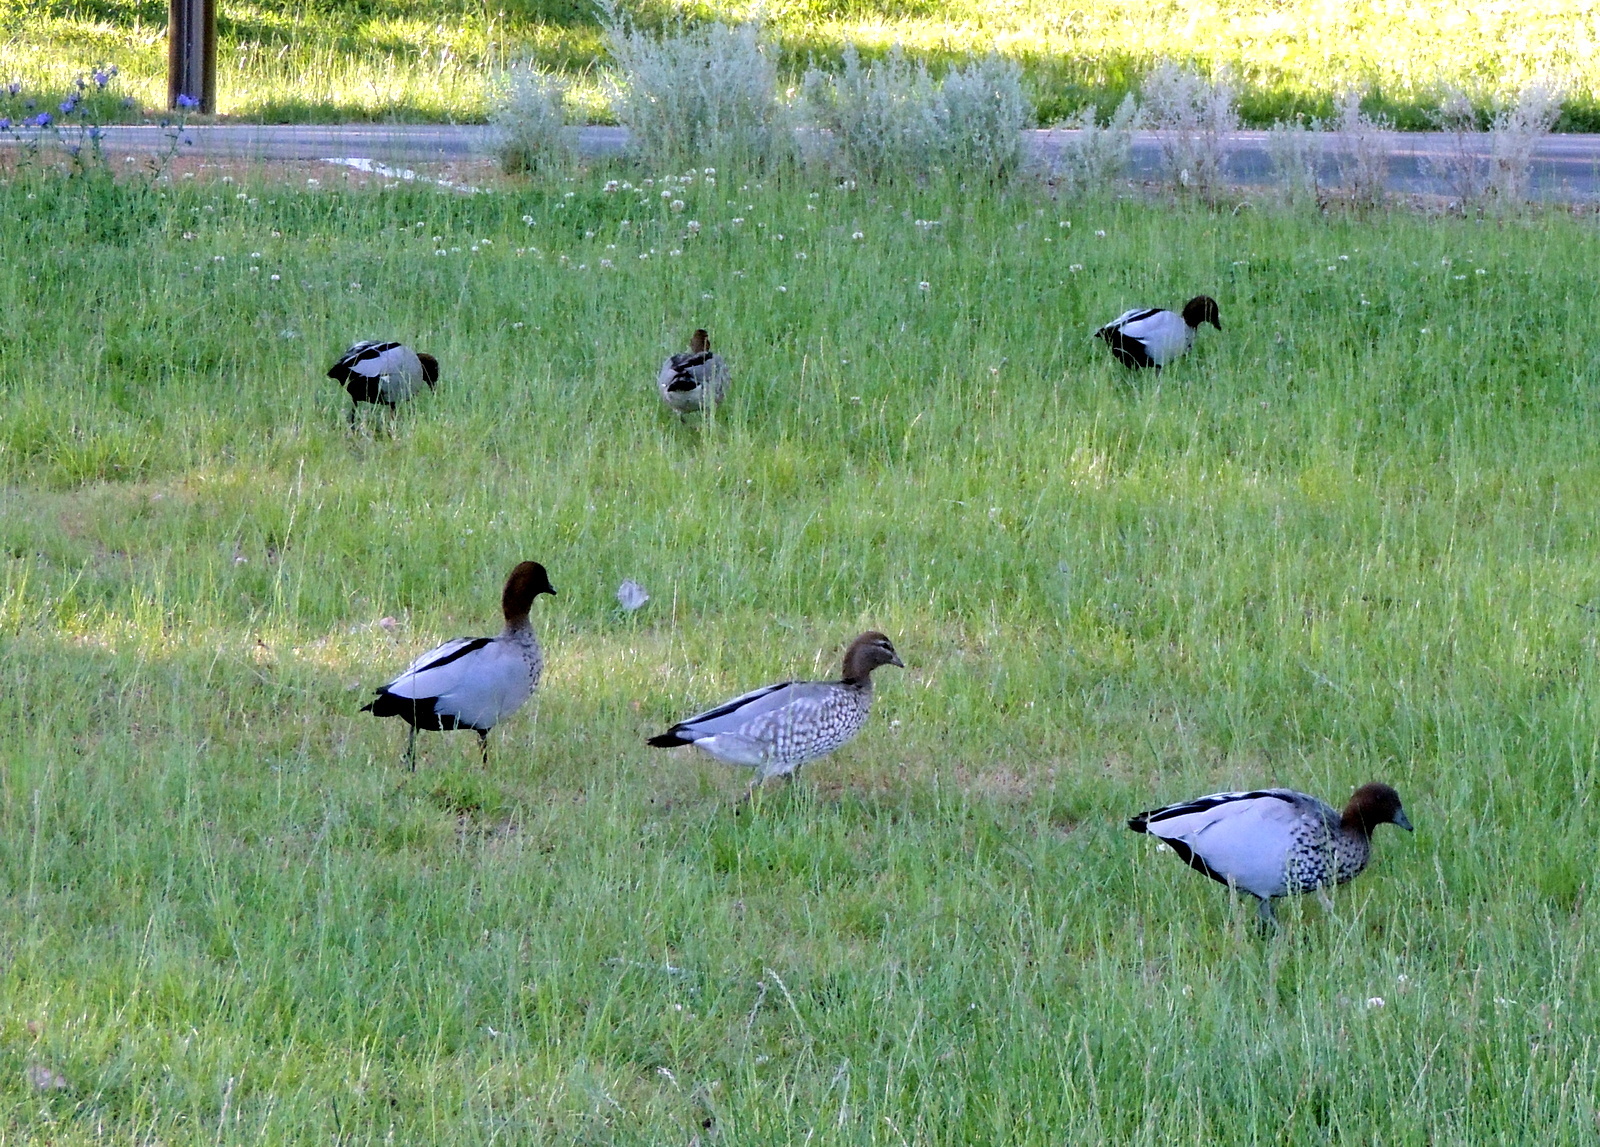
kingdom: Animalia
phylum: Chordata
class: Aves
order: Anseriformes
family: Anatidae
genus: Chenonetta
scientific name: Chenonetta jubata
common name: Maned duck
